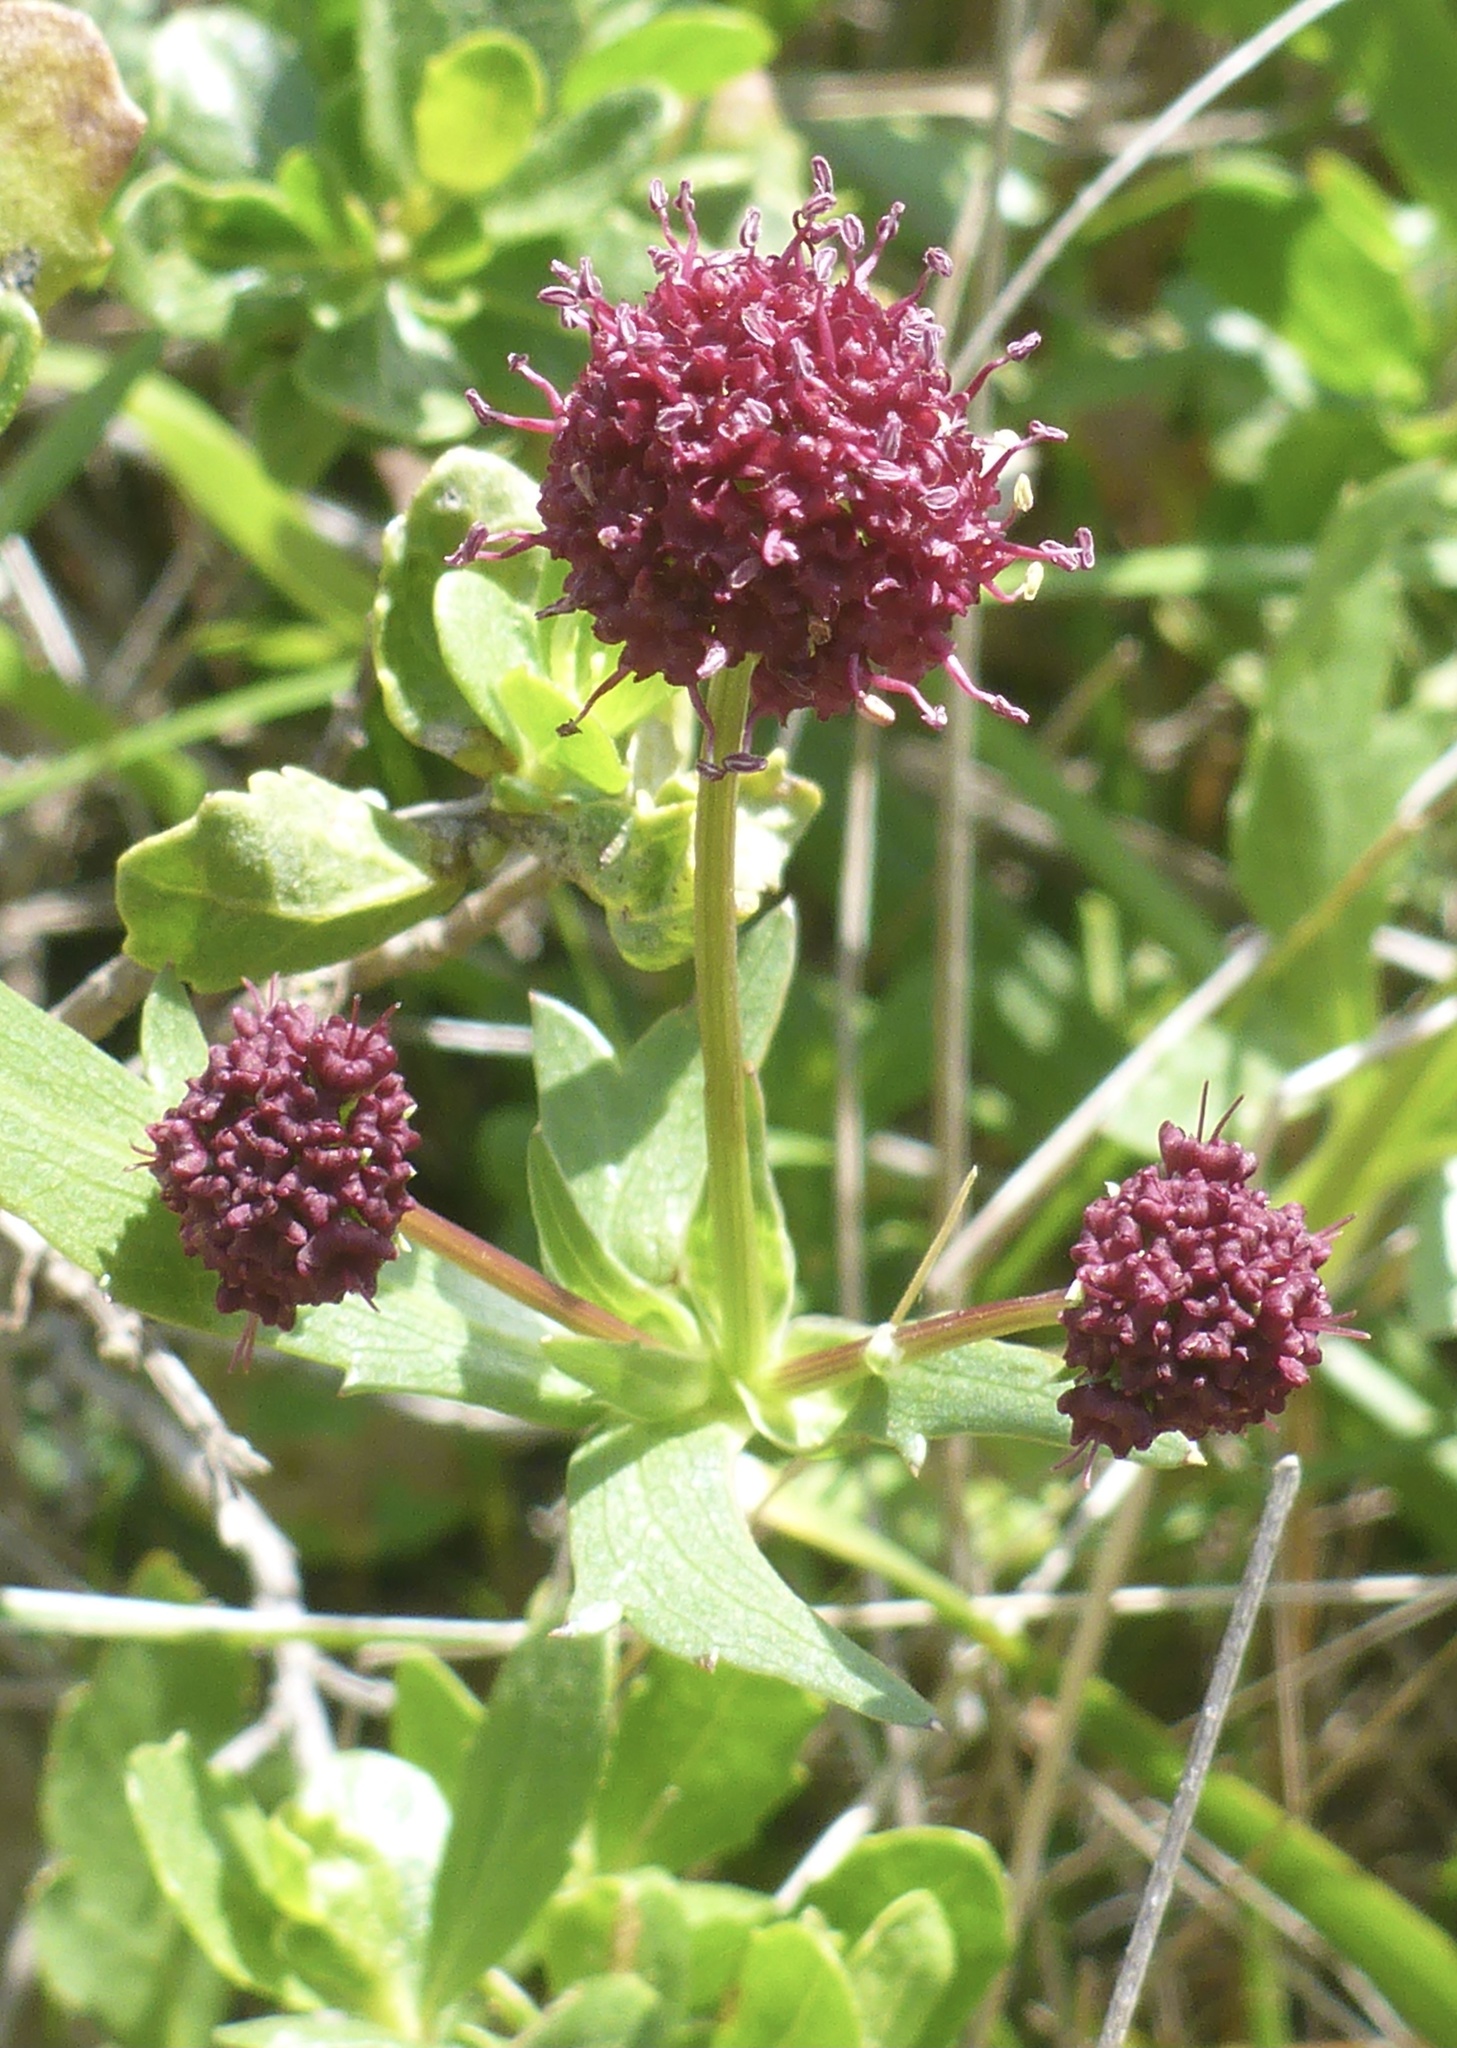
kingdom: Plantae
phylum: Tracheophyta
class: Magnoliopsida
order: Apiales
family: Apiaceae
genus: Sanicula
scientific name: Sanicula bipinnatifida
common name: Shoe-buttons
